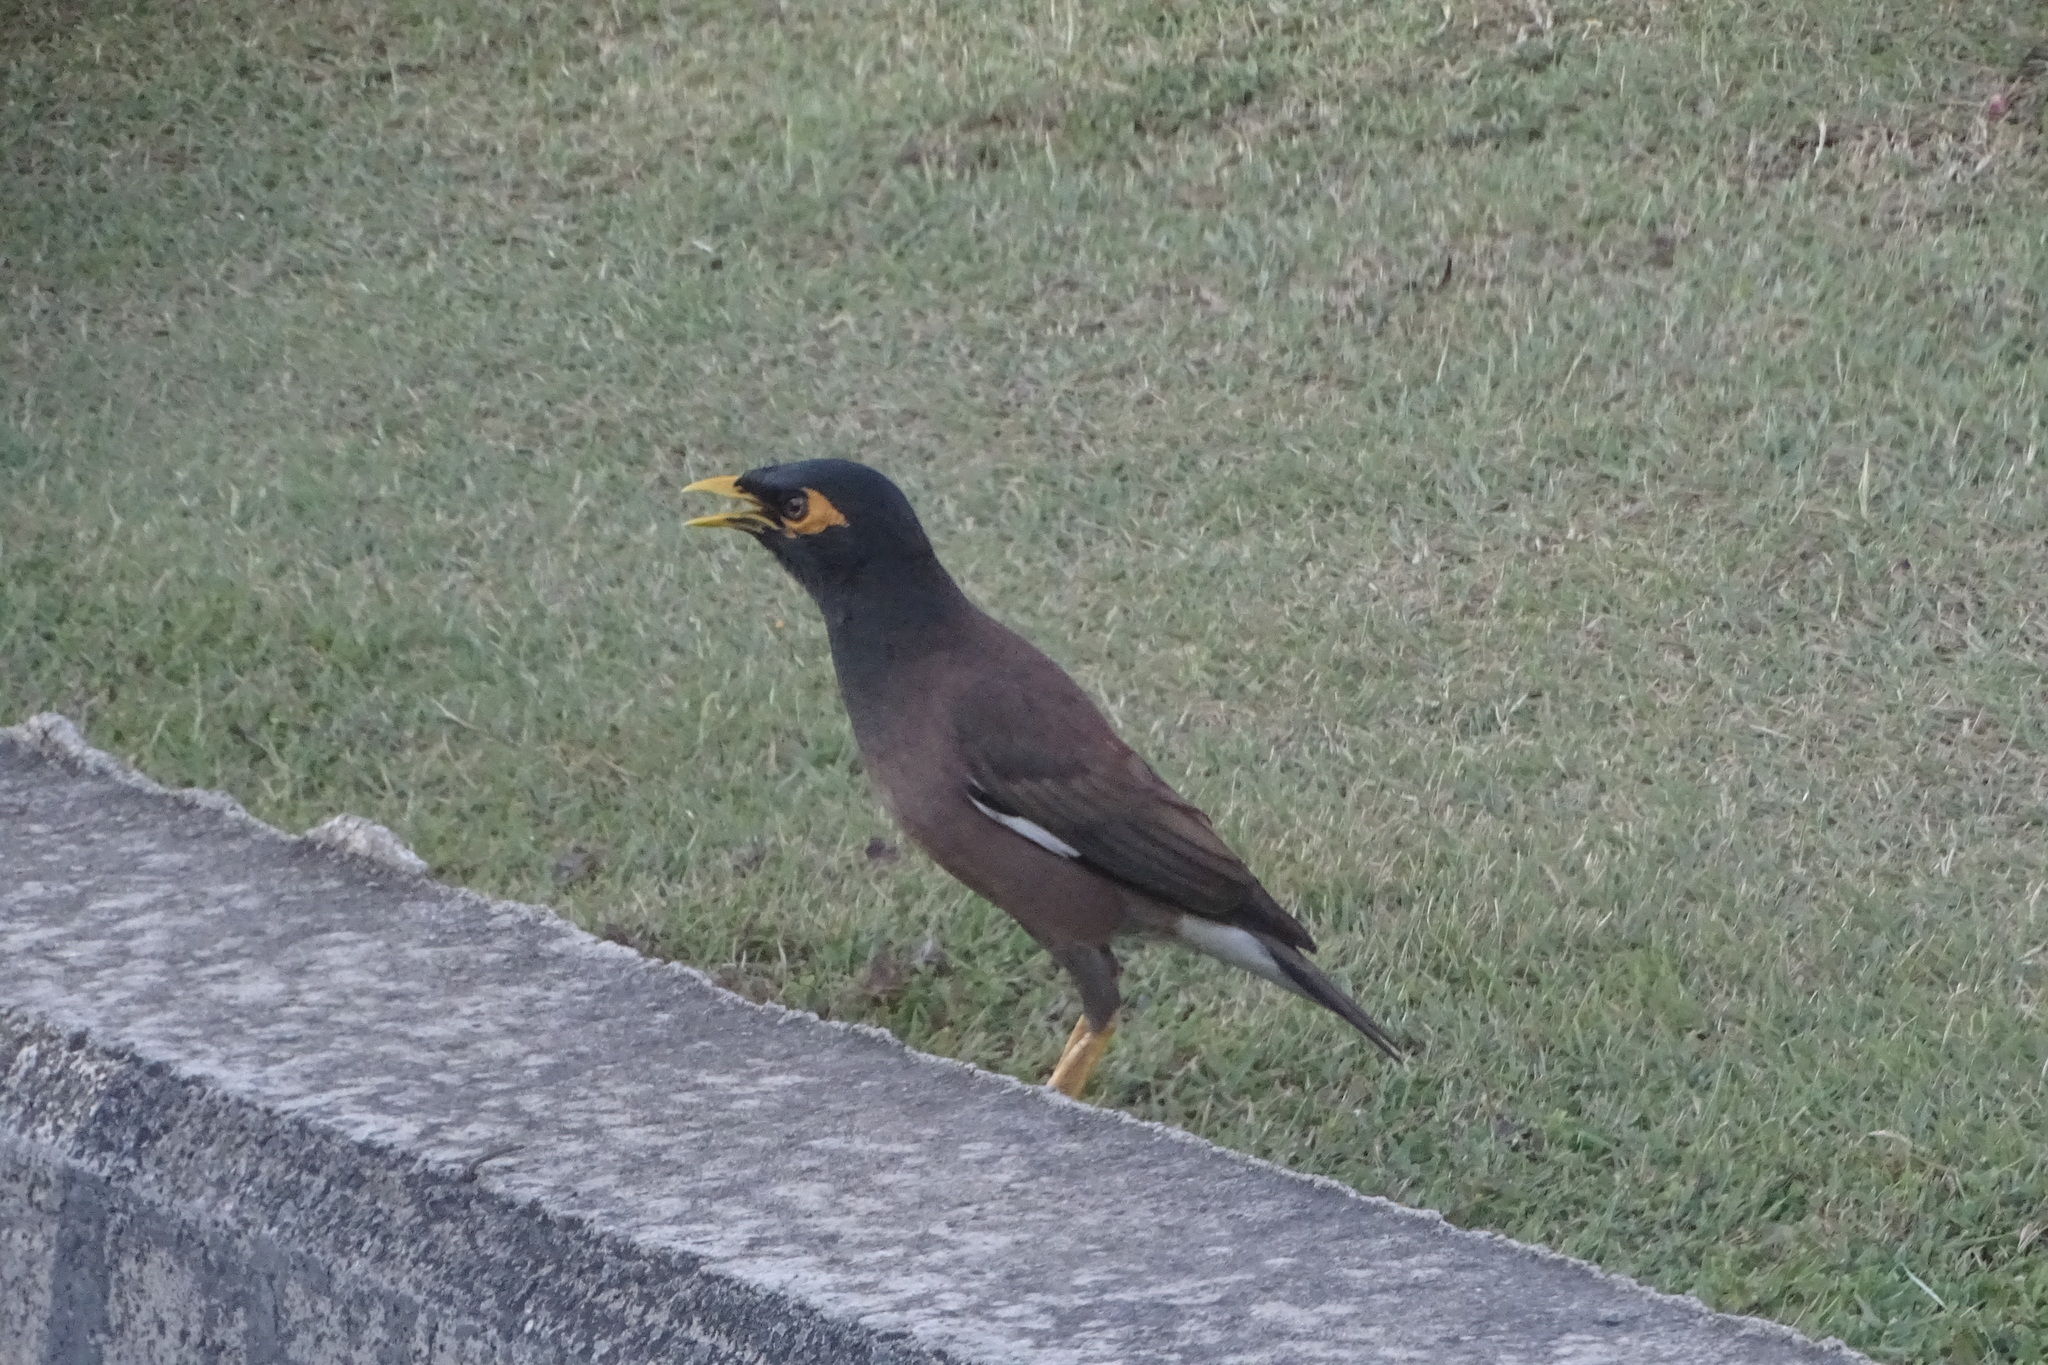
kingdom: Animalia
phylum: Chordata
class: Aves
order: Passeriformes
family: Sturnidae
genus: Acridotheres
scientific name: Acridotheres tristis
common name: Common myna
